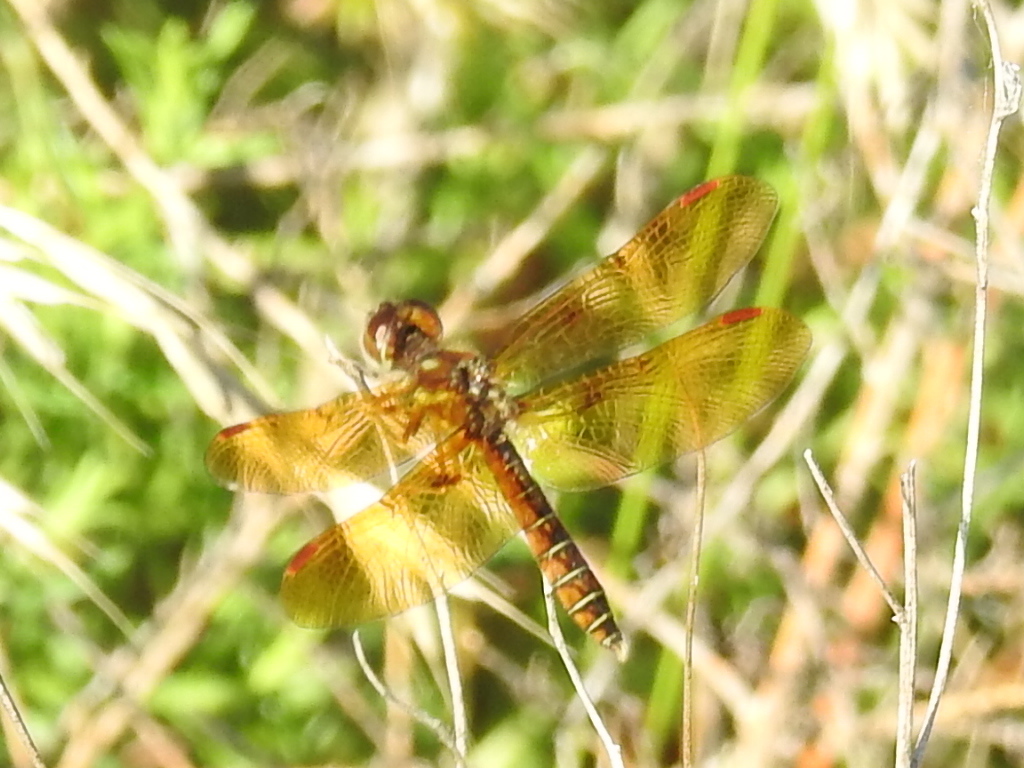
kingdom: Animalia
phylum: Arthropoda
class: Insecta
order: Odonata
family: Libellulidae
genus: Perithemis
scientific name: Perithemis tenera
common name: Eastern amberwing
